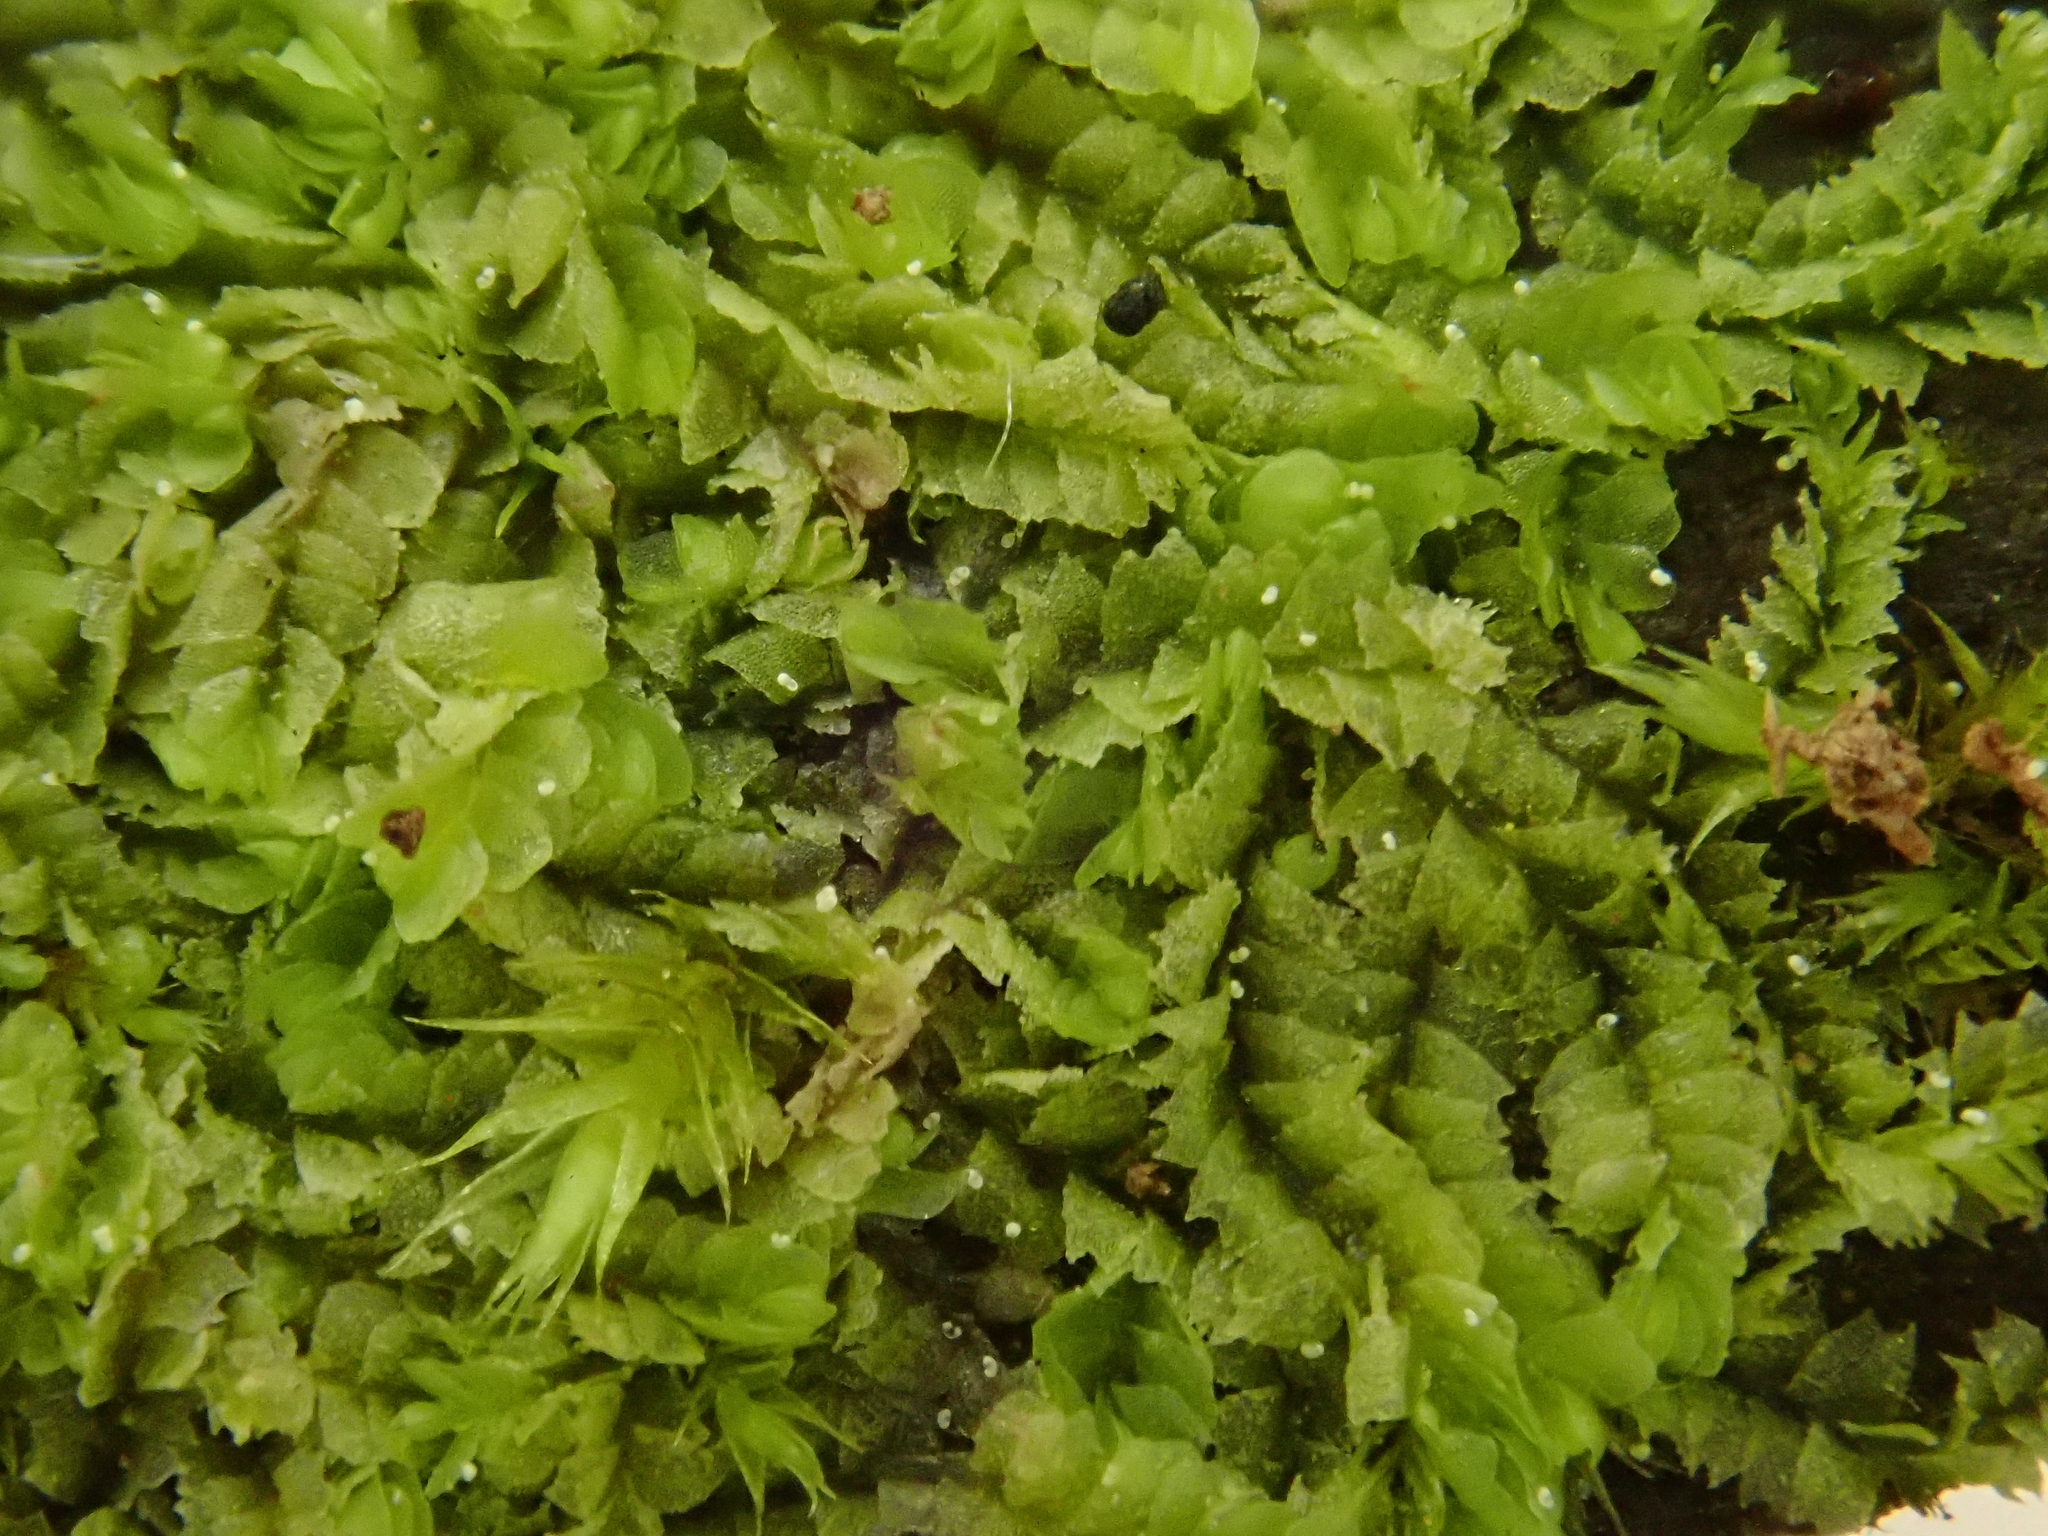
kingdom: Plantae
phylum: Marchantiophyta
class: Jungermanniopsida
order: Jungermanniales
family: Lophocoleaceae
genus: Lophocolea
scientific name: Lophocolea heterophylla
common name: Variable-leaved crestwort
